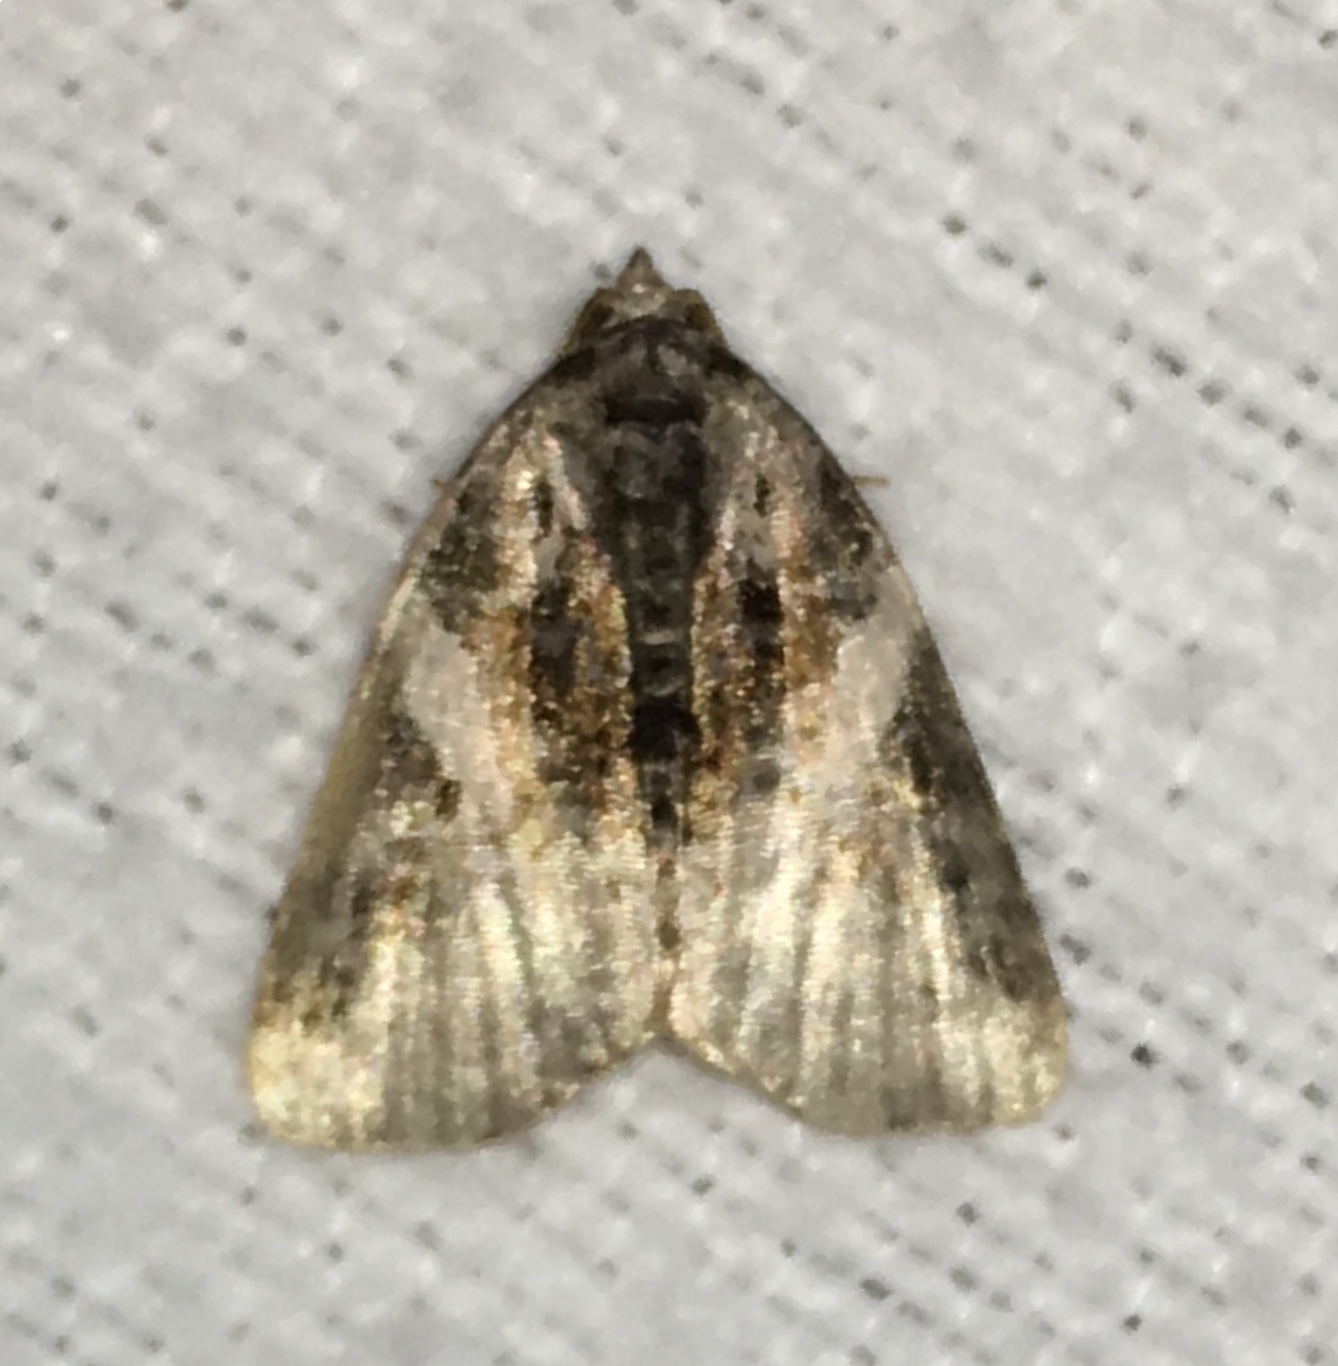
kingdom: Animalia
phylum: Arthropoda
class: Insecta
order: Lepidoptera
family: Noctuidae
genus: Pseudeustrotia
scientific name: Pseudeustrotia carneola
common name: Pink-barred lithacodia moth
